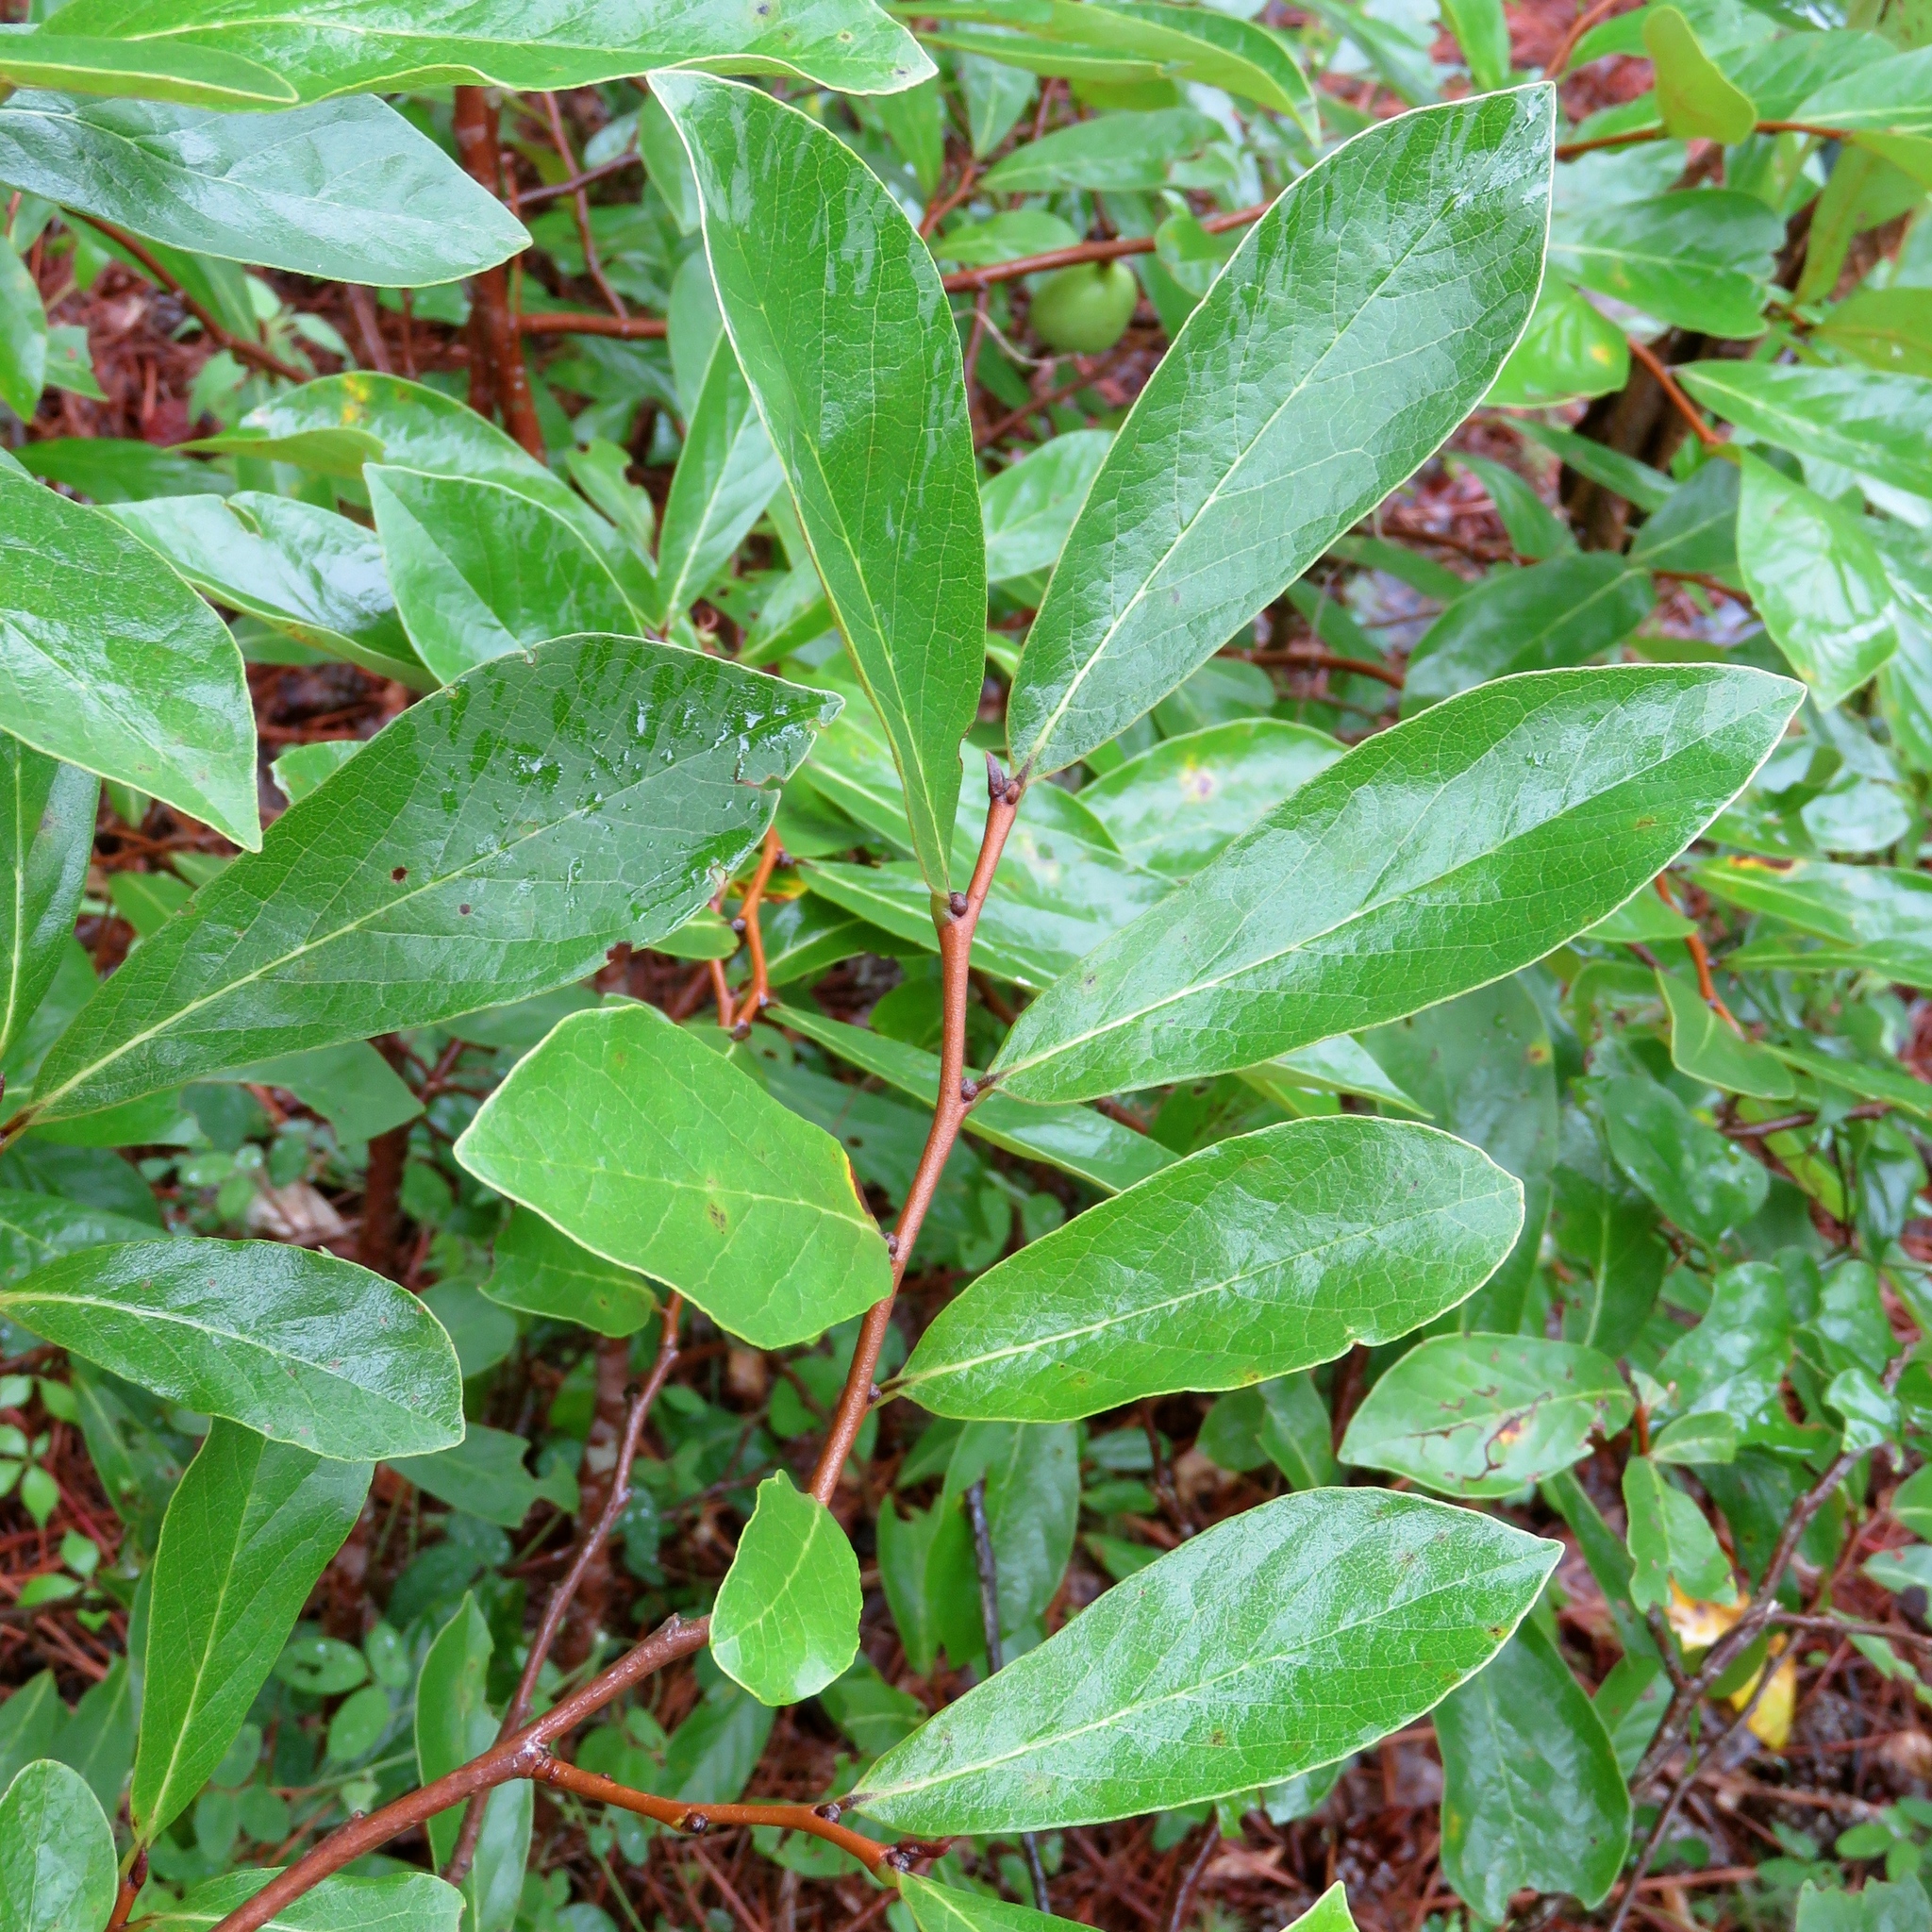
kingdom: Plantae
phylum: Tracheophyta
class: Magnoliopsida
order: Magnoliales
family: Annonaceae
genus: Asimina
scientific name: Asimina parviflora
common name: Dwarf pawpaw
